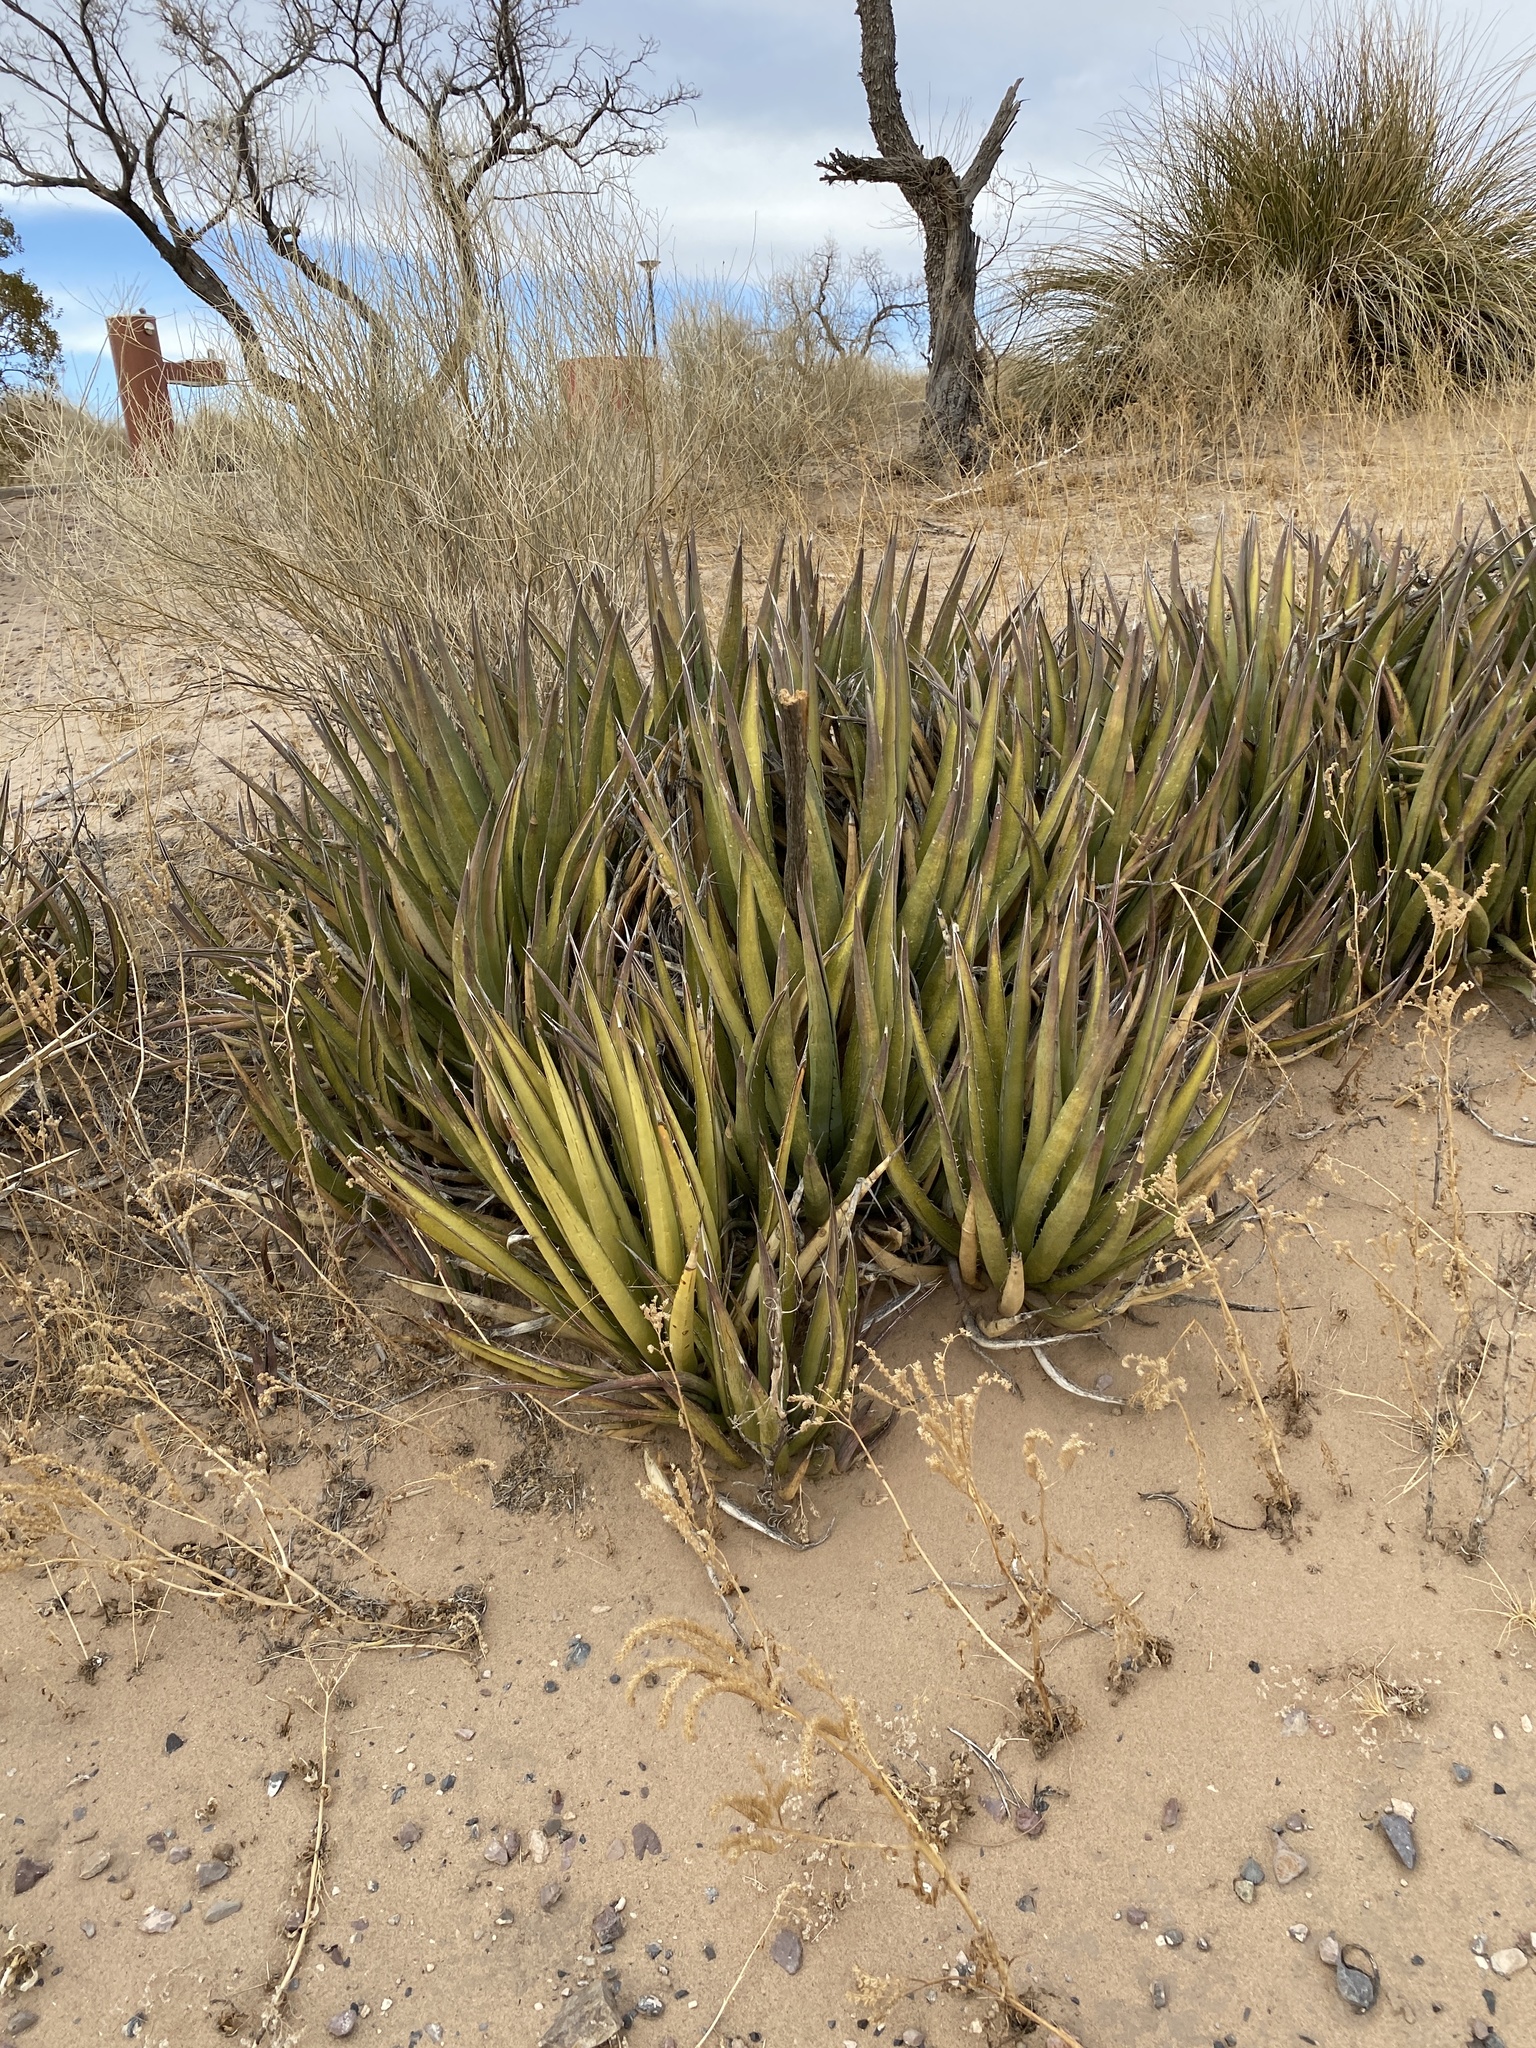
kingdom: Plantae
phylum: Tracheophyta
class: Liliopsida
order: Asparagales
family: Asparagaceae
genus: Agave
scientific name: Agave lechuguilla
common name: Lecheguilla agave
